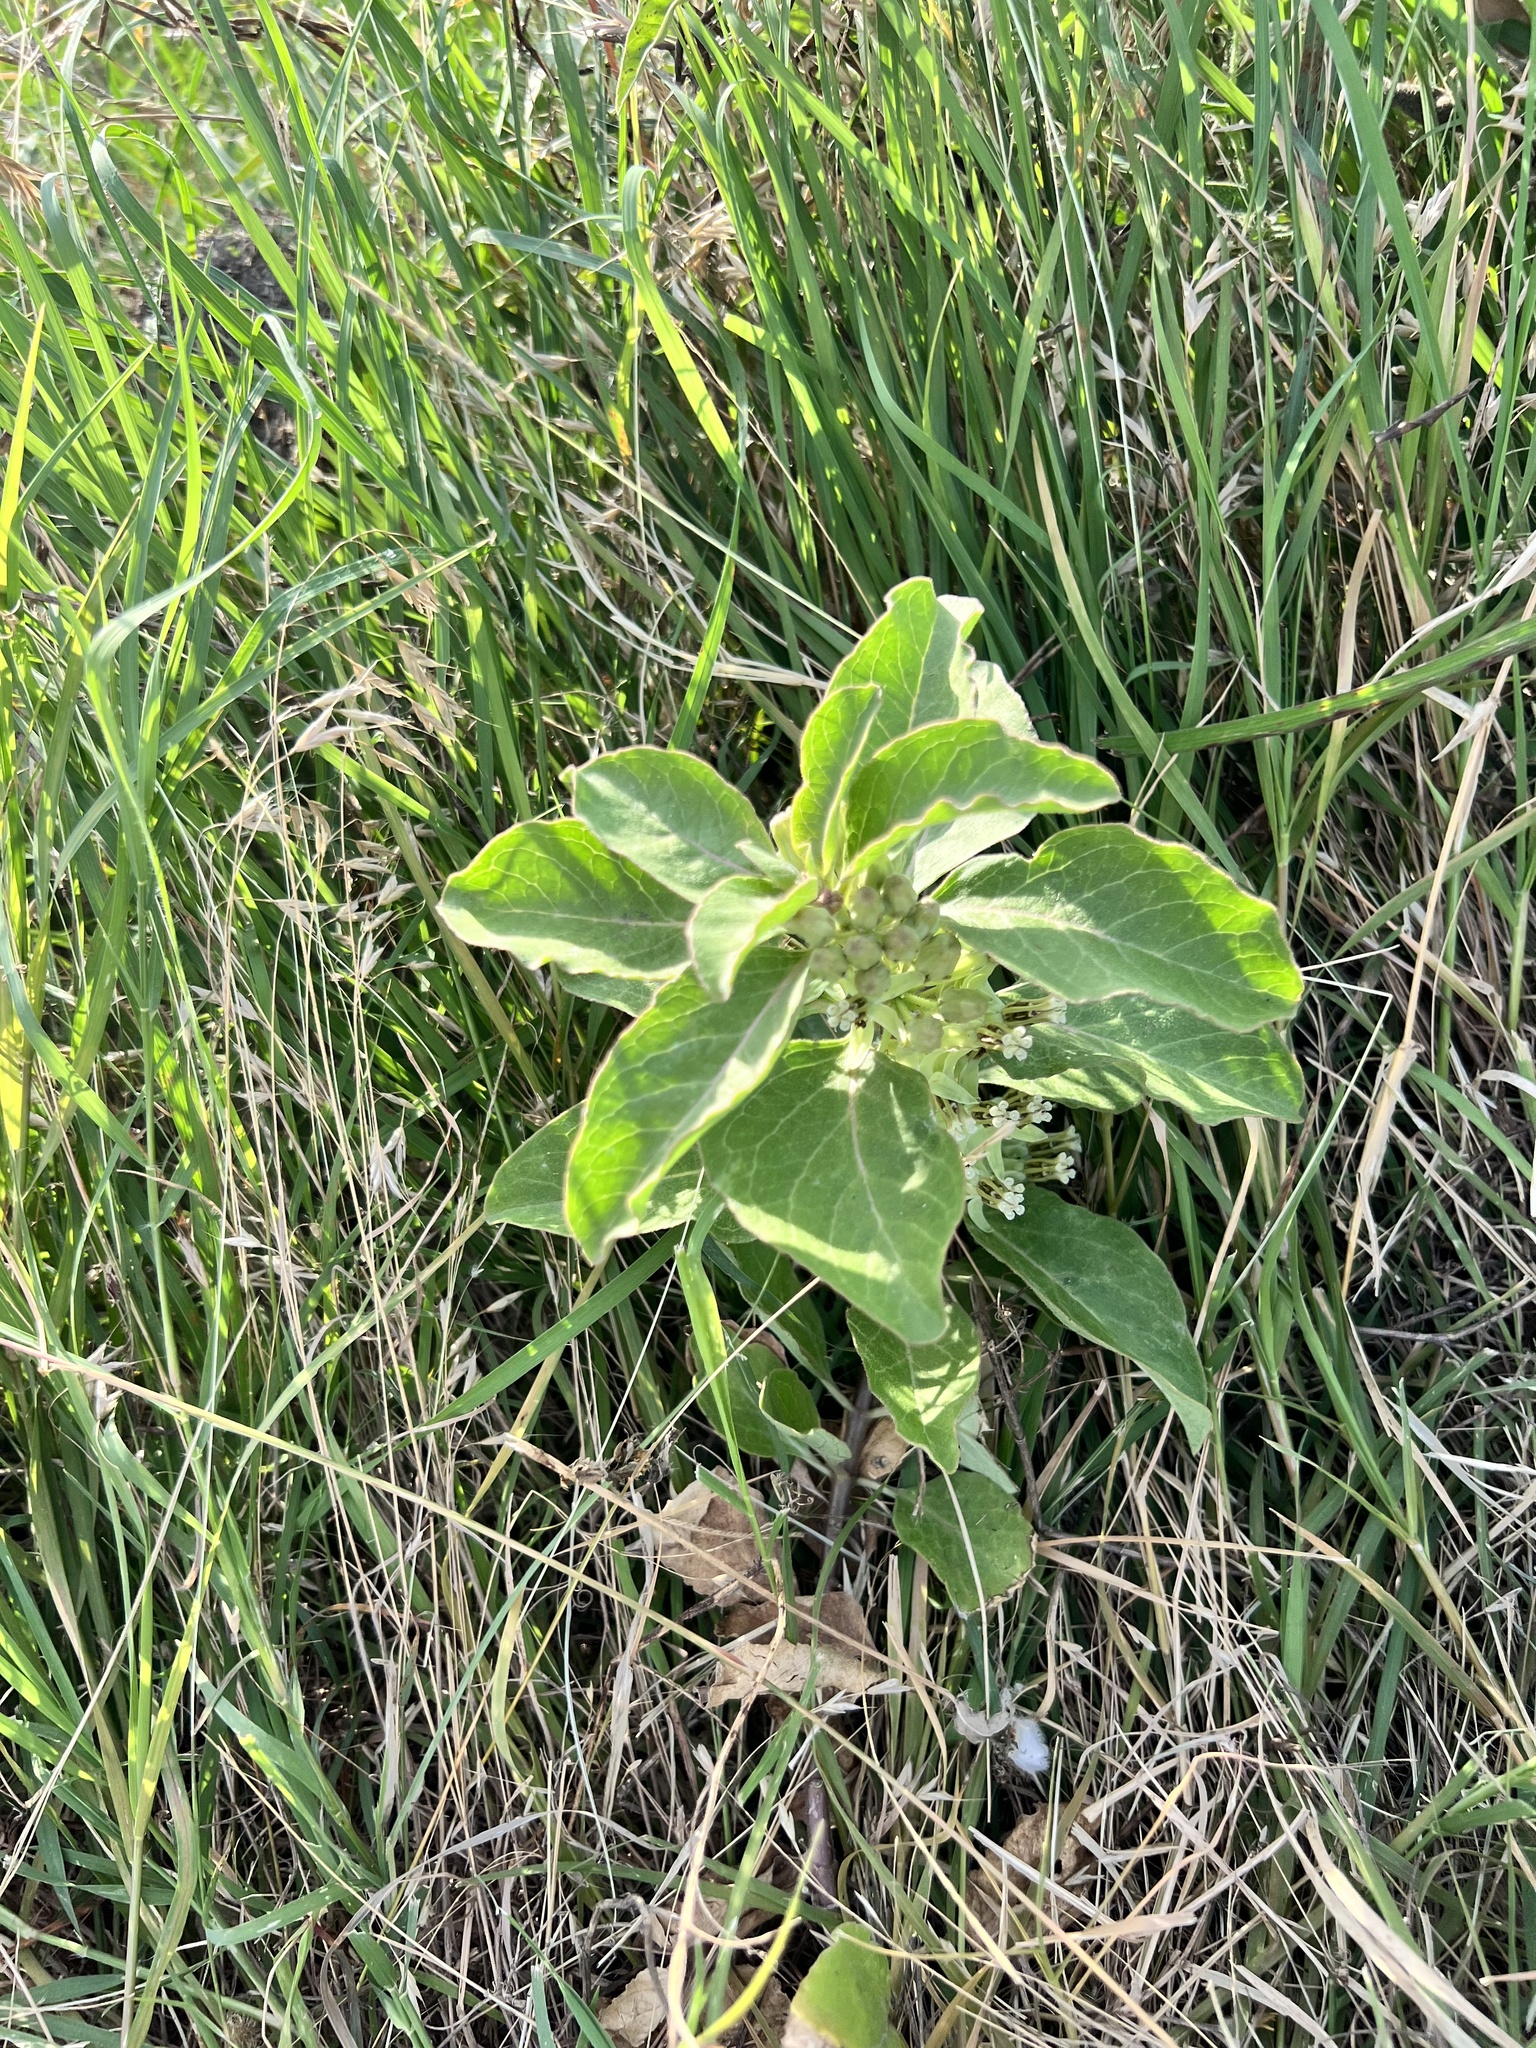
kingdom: Plantae
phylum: Tracheophyta
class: Magnoliopsida
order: Gentianales
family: Apocynaceae
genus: Asclepias
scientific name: Asclepias oenotheroides
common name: Zizotes milkweed
